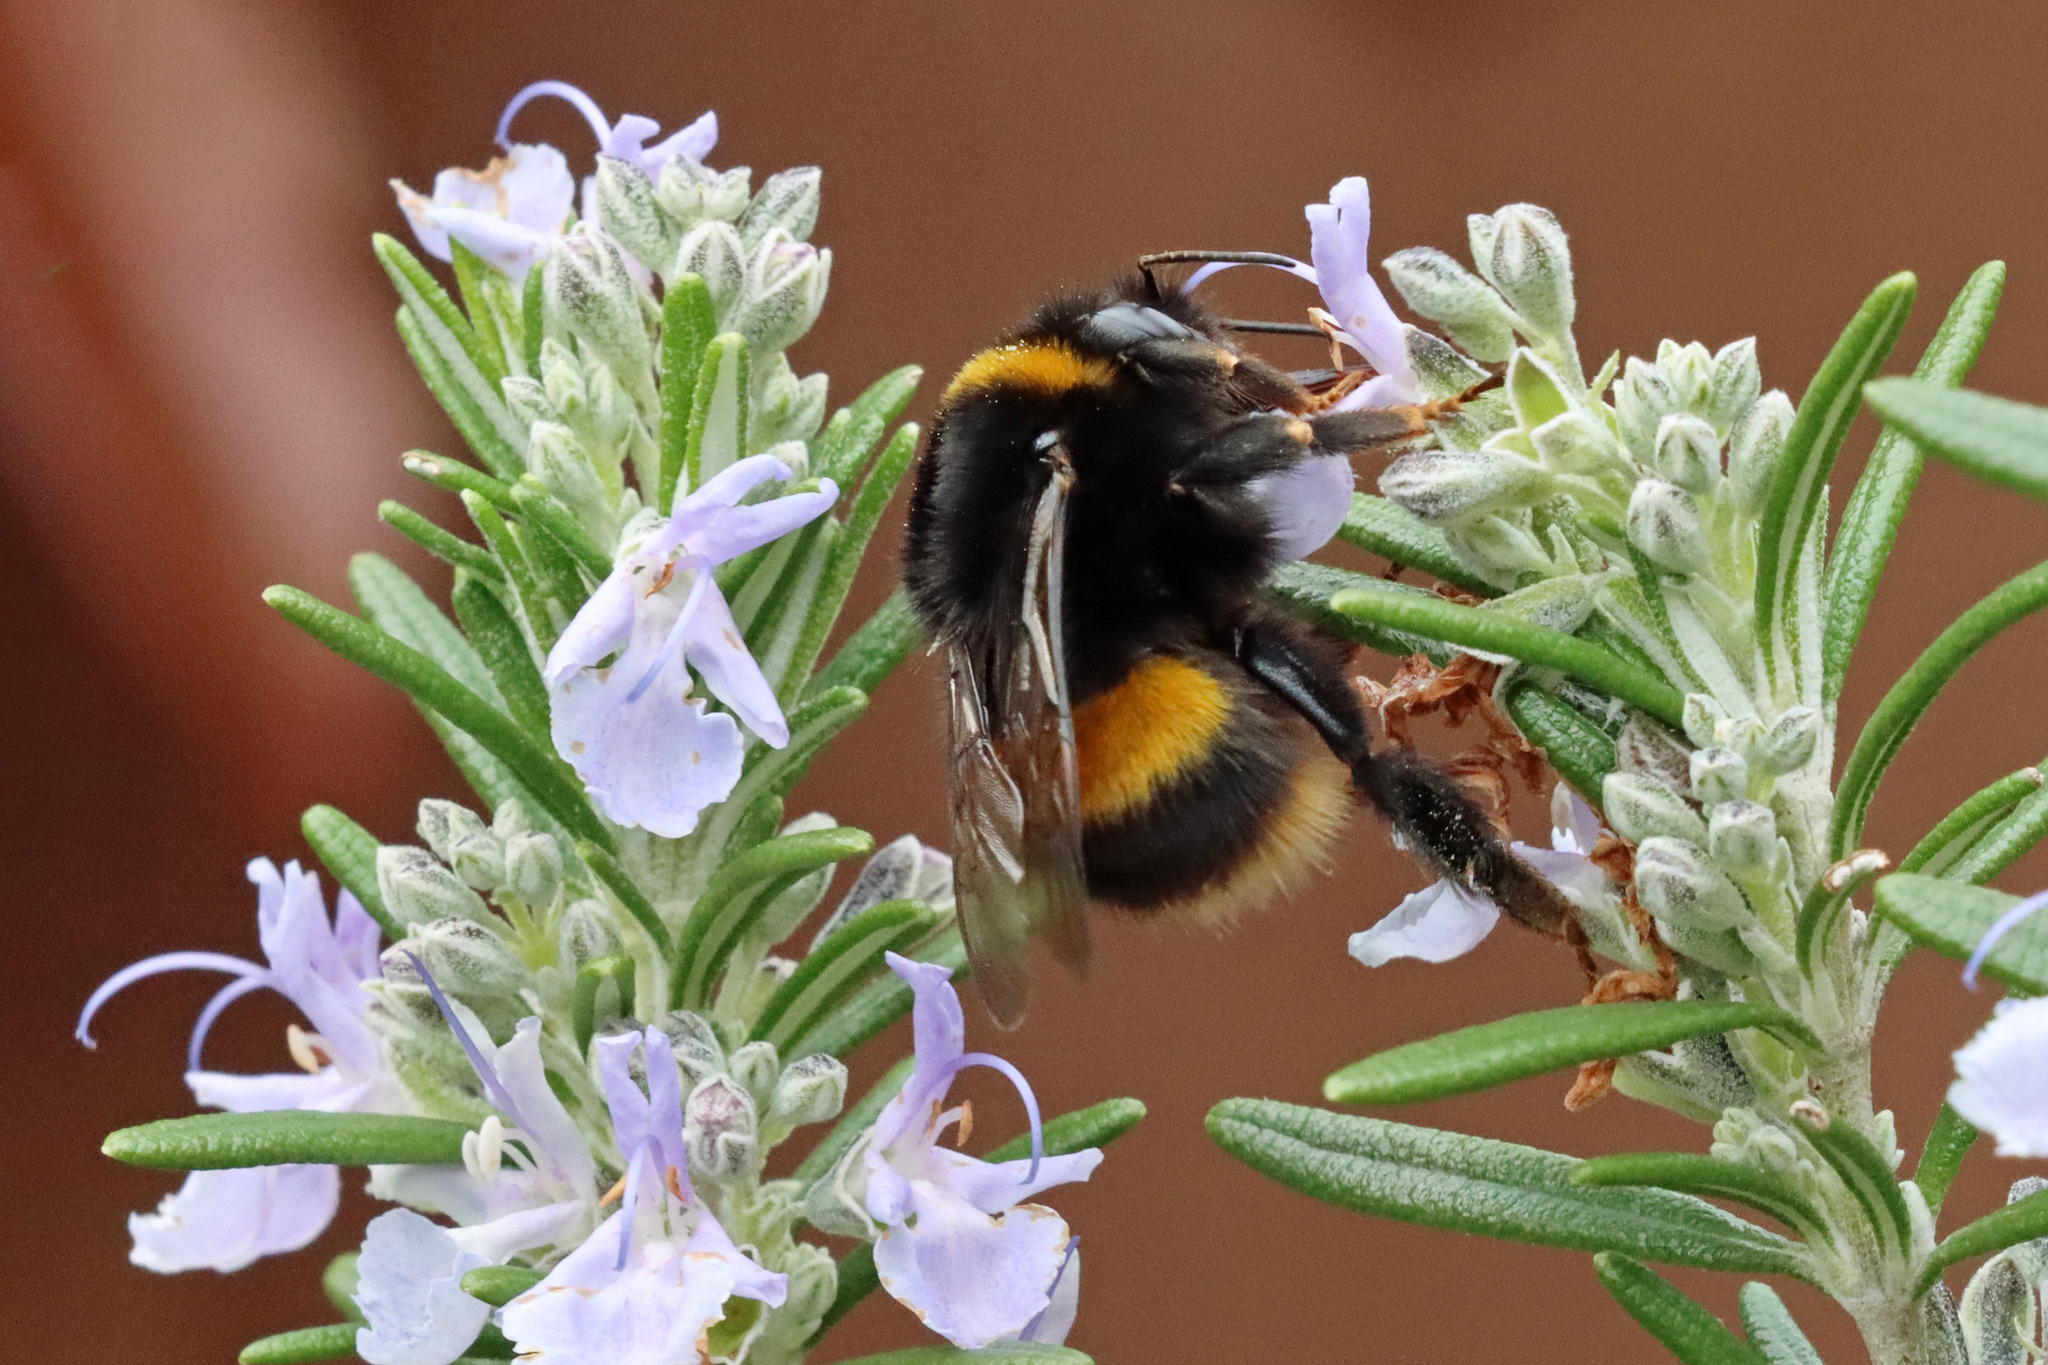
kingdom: Animalia
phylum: Arthropoda
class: Insecta
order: Hymenoptera
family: Apidae
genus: Bombus
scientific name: Bombus terrestris
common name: Buff-tailed bumblebee
